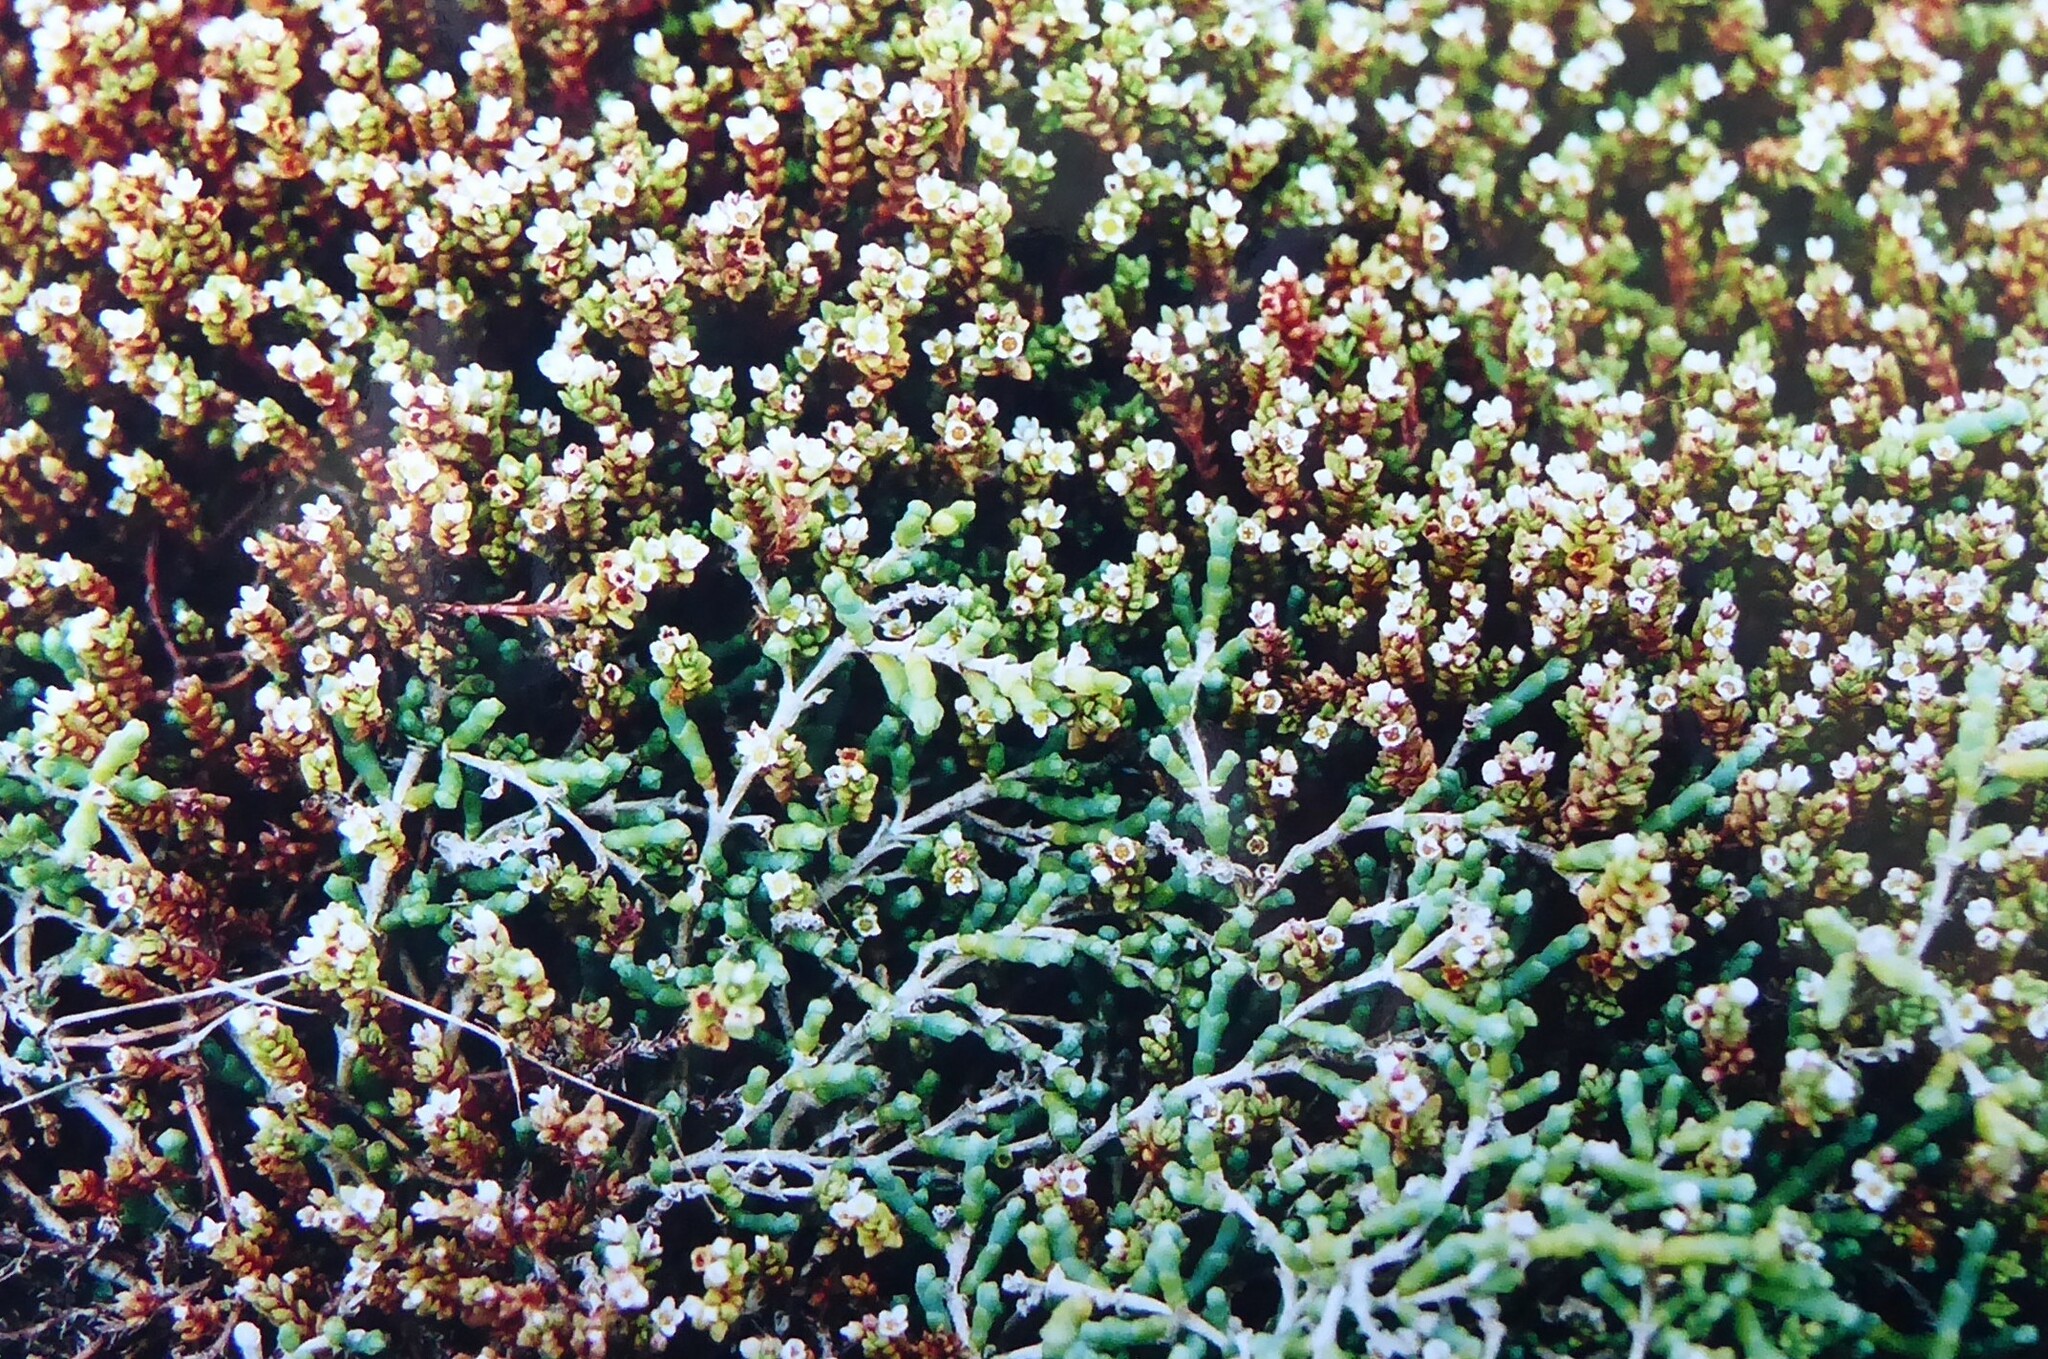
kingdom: Plantae
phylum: Tracheophyta
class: Magnoliopsida
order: Caryophyllales
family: Amaranthaceae
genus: Salicornia
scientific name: Salicornia quinqueflora
